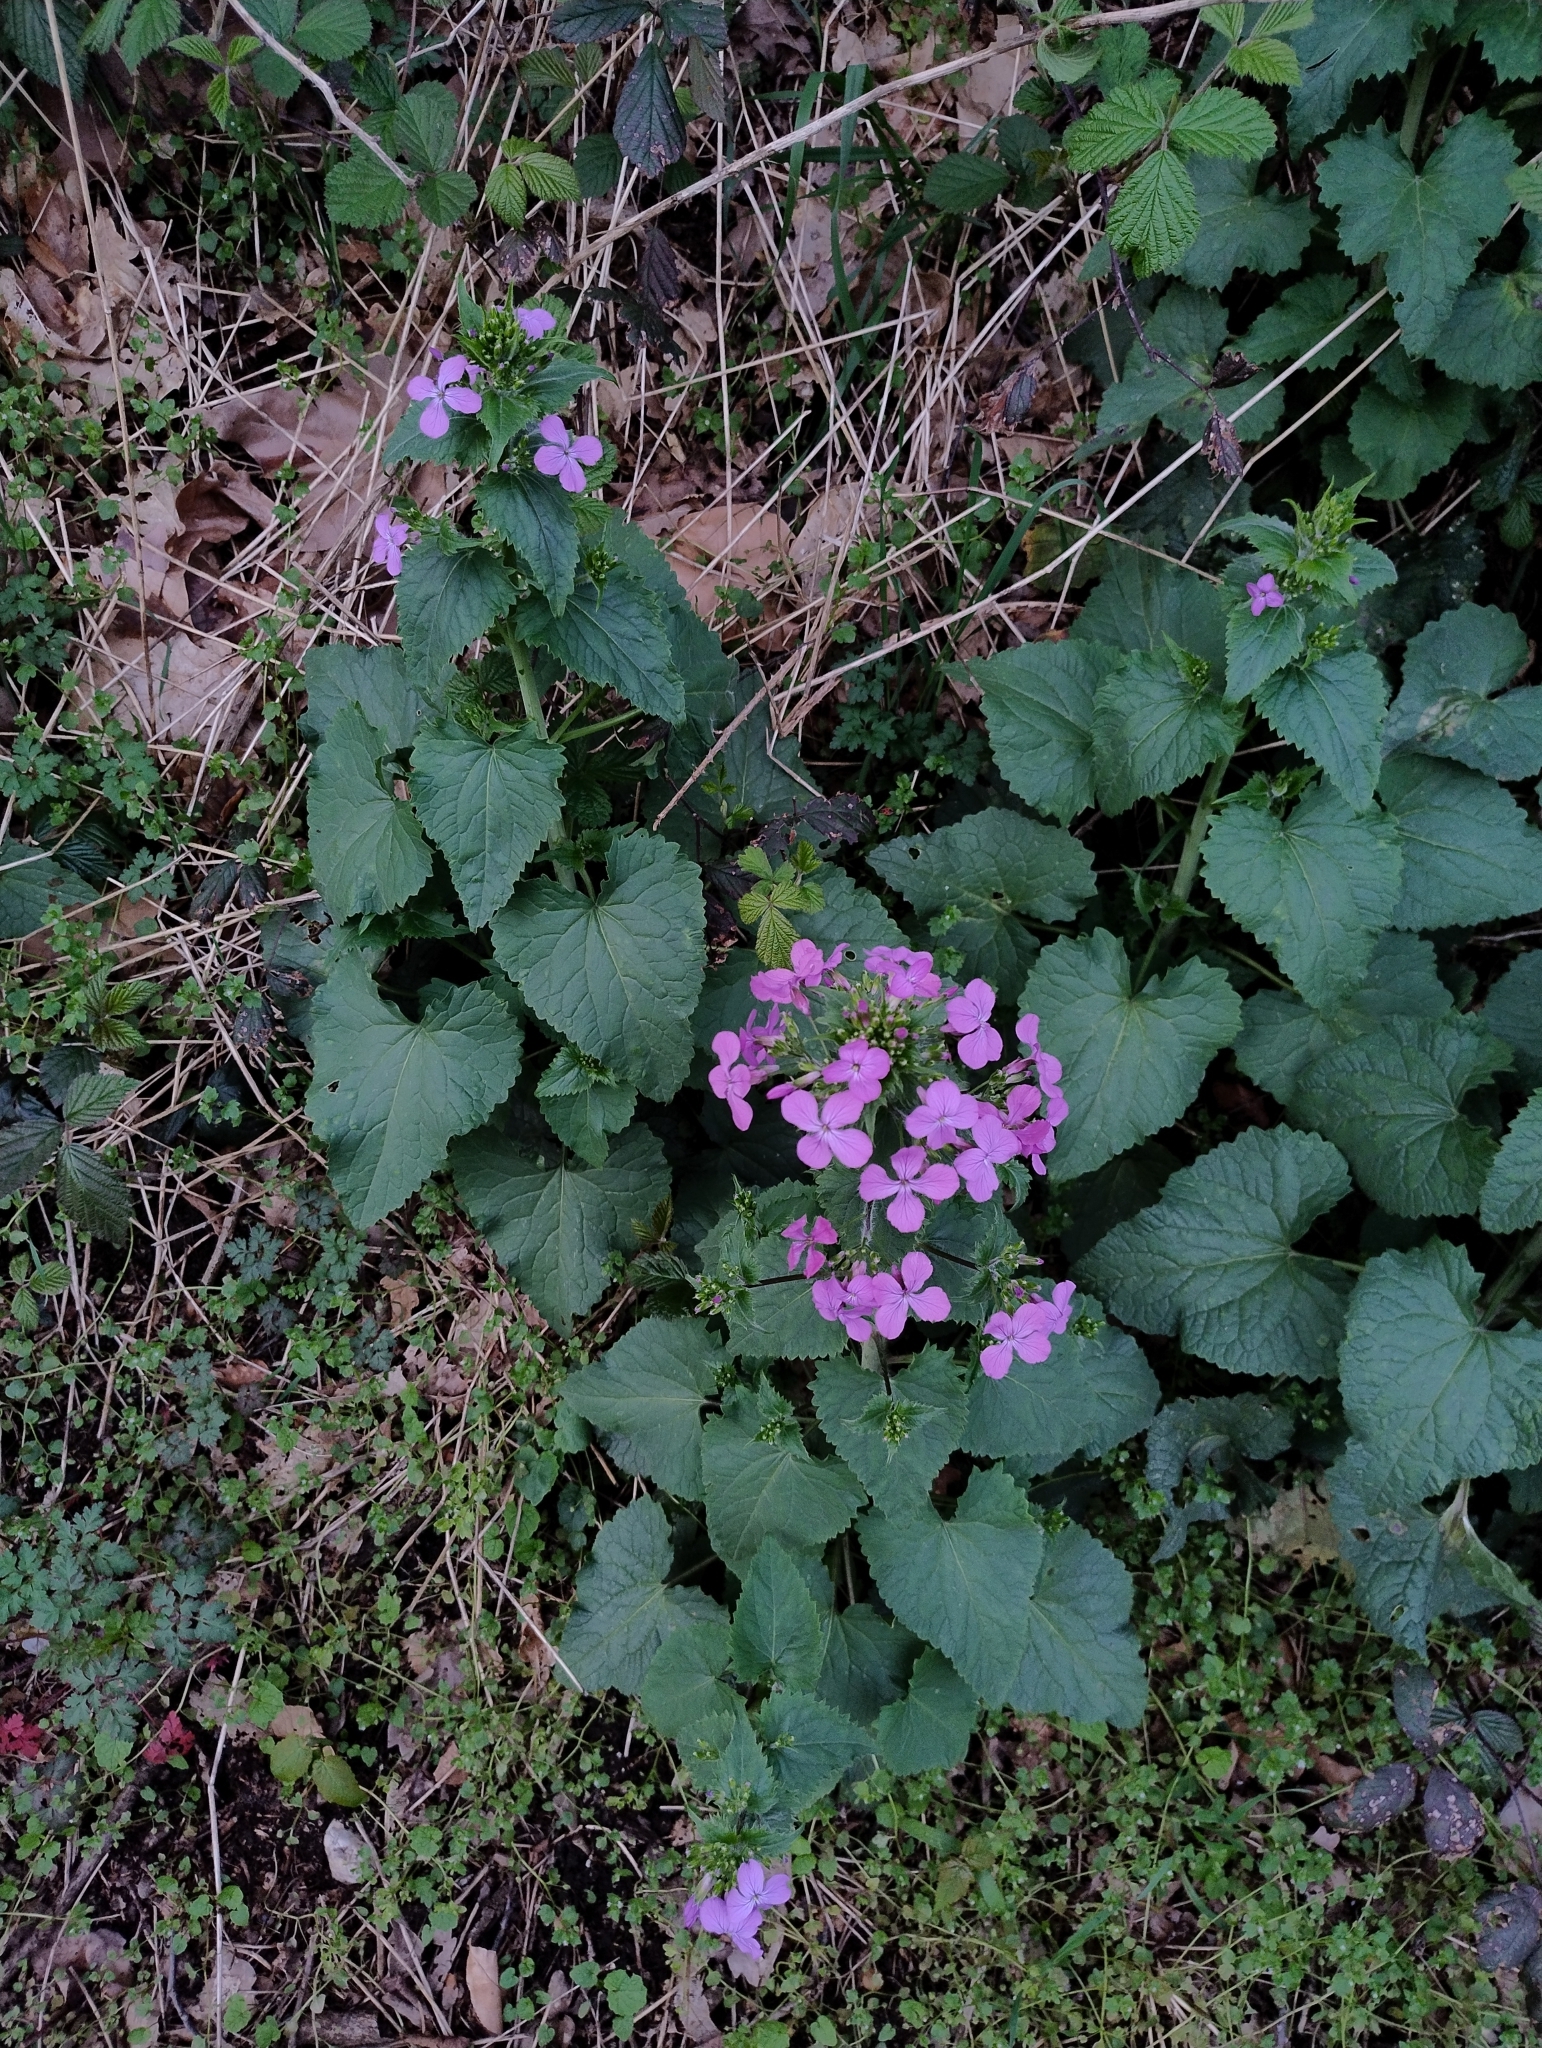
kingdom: Plantae
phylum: Tracheophyta
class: Magnoliopsida
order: Brassicales
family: Brassicaceae
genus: Lunaria
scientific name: Lunaria annua
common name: Honesty
